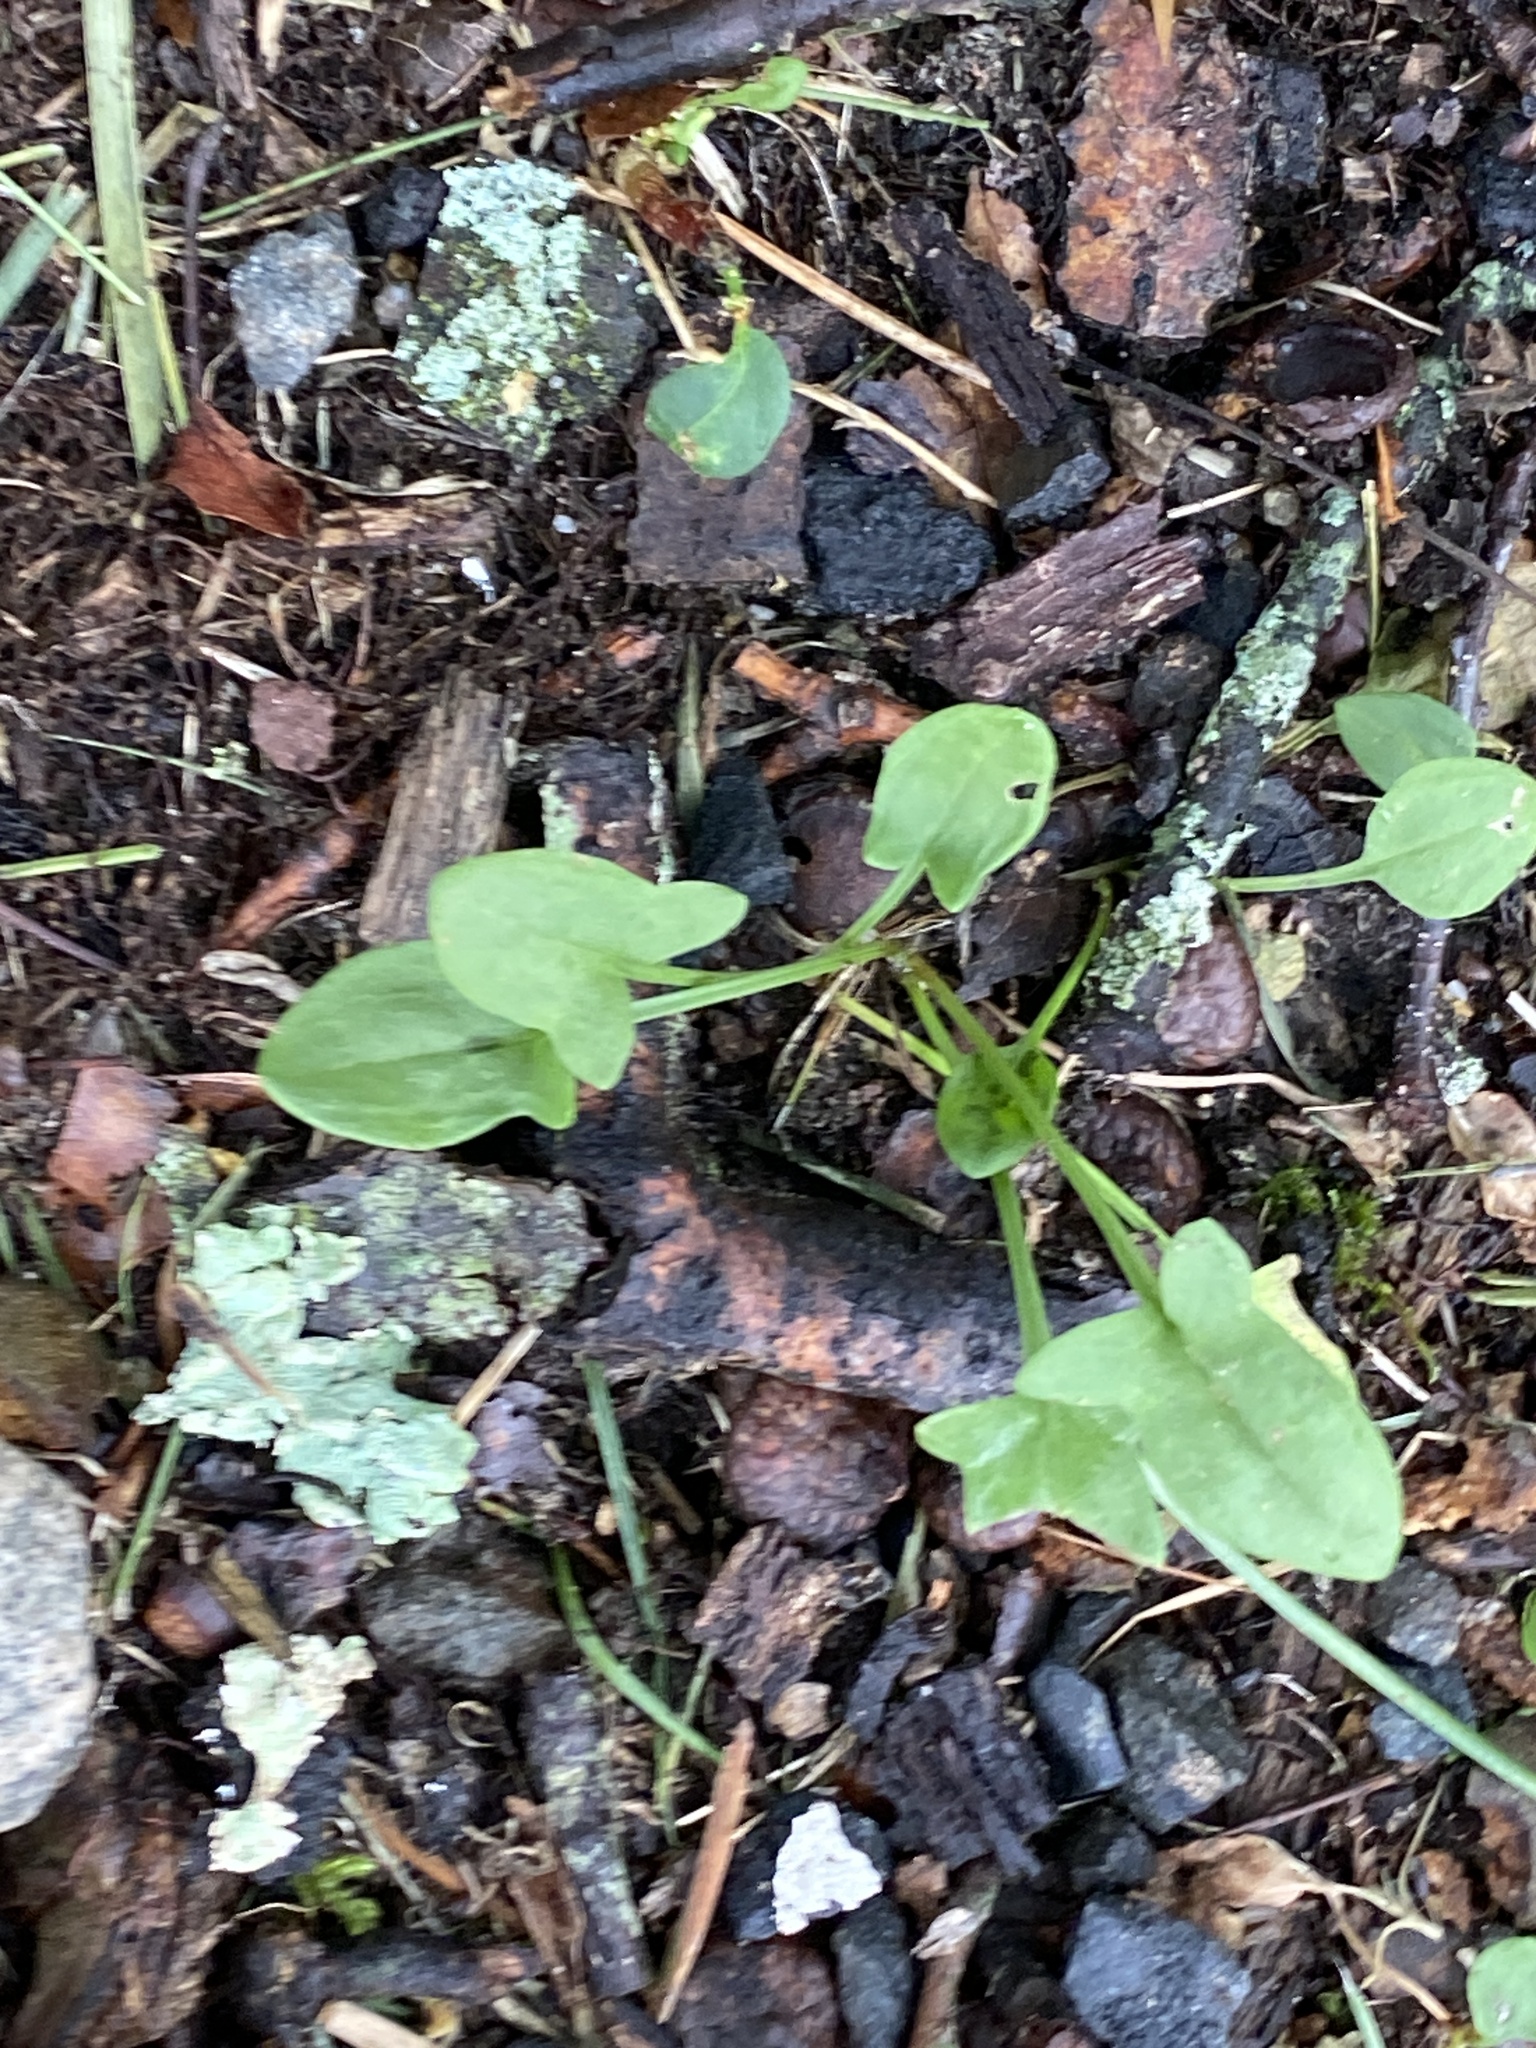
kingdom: Plantae
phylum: Tracheophyta
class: Magnoliopsida
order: Caryophyllales
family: Polygonaceae
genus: Rumex
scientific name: Rumex acetosella
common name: Common sheep sorrel
